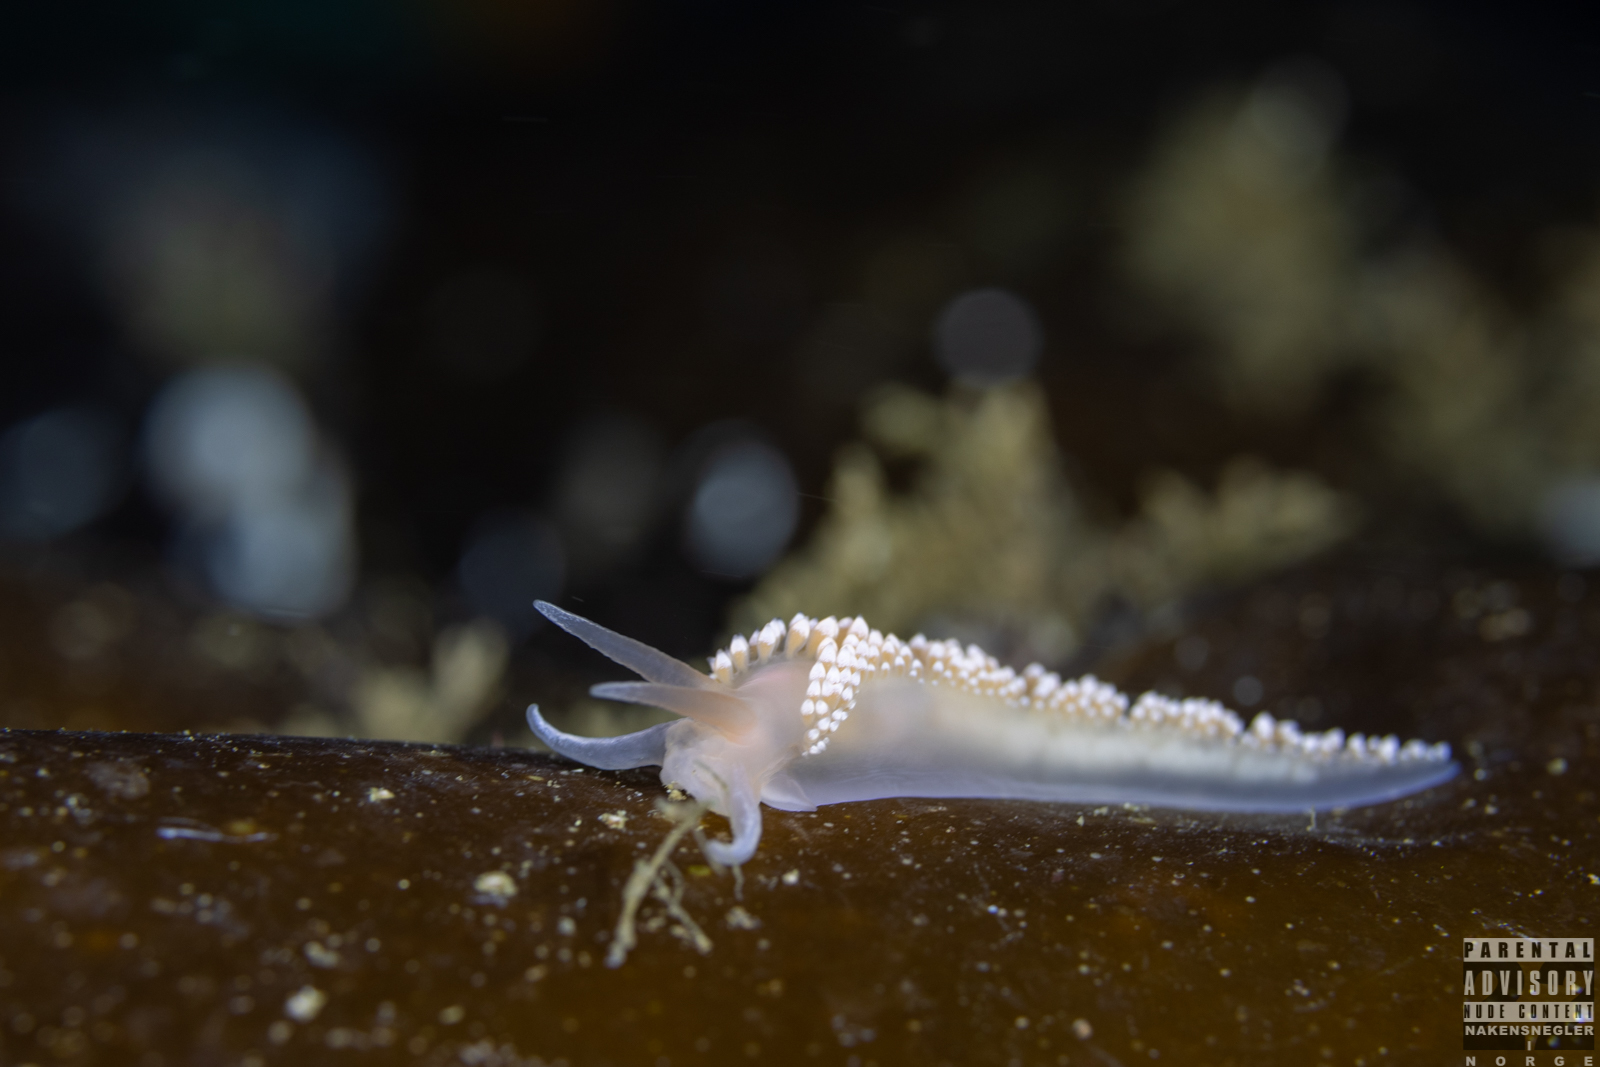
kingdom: Animalia
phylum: Mollusca
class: Gastropoda
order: Nudibranchia
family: Coryphellidae
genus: Coryphella
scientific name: Coryphella verrucosa
